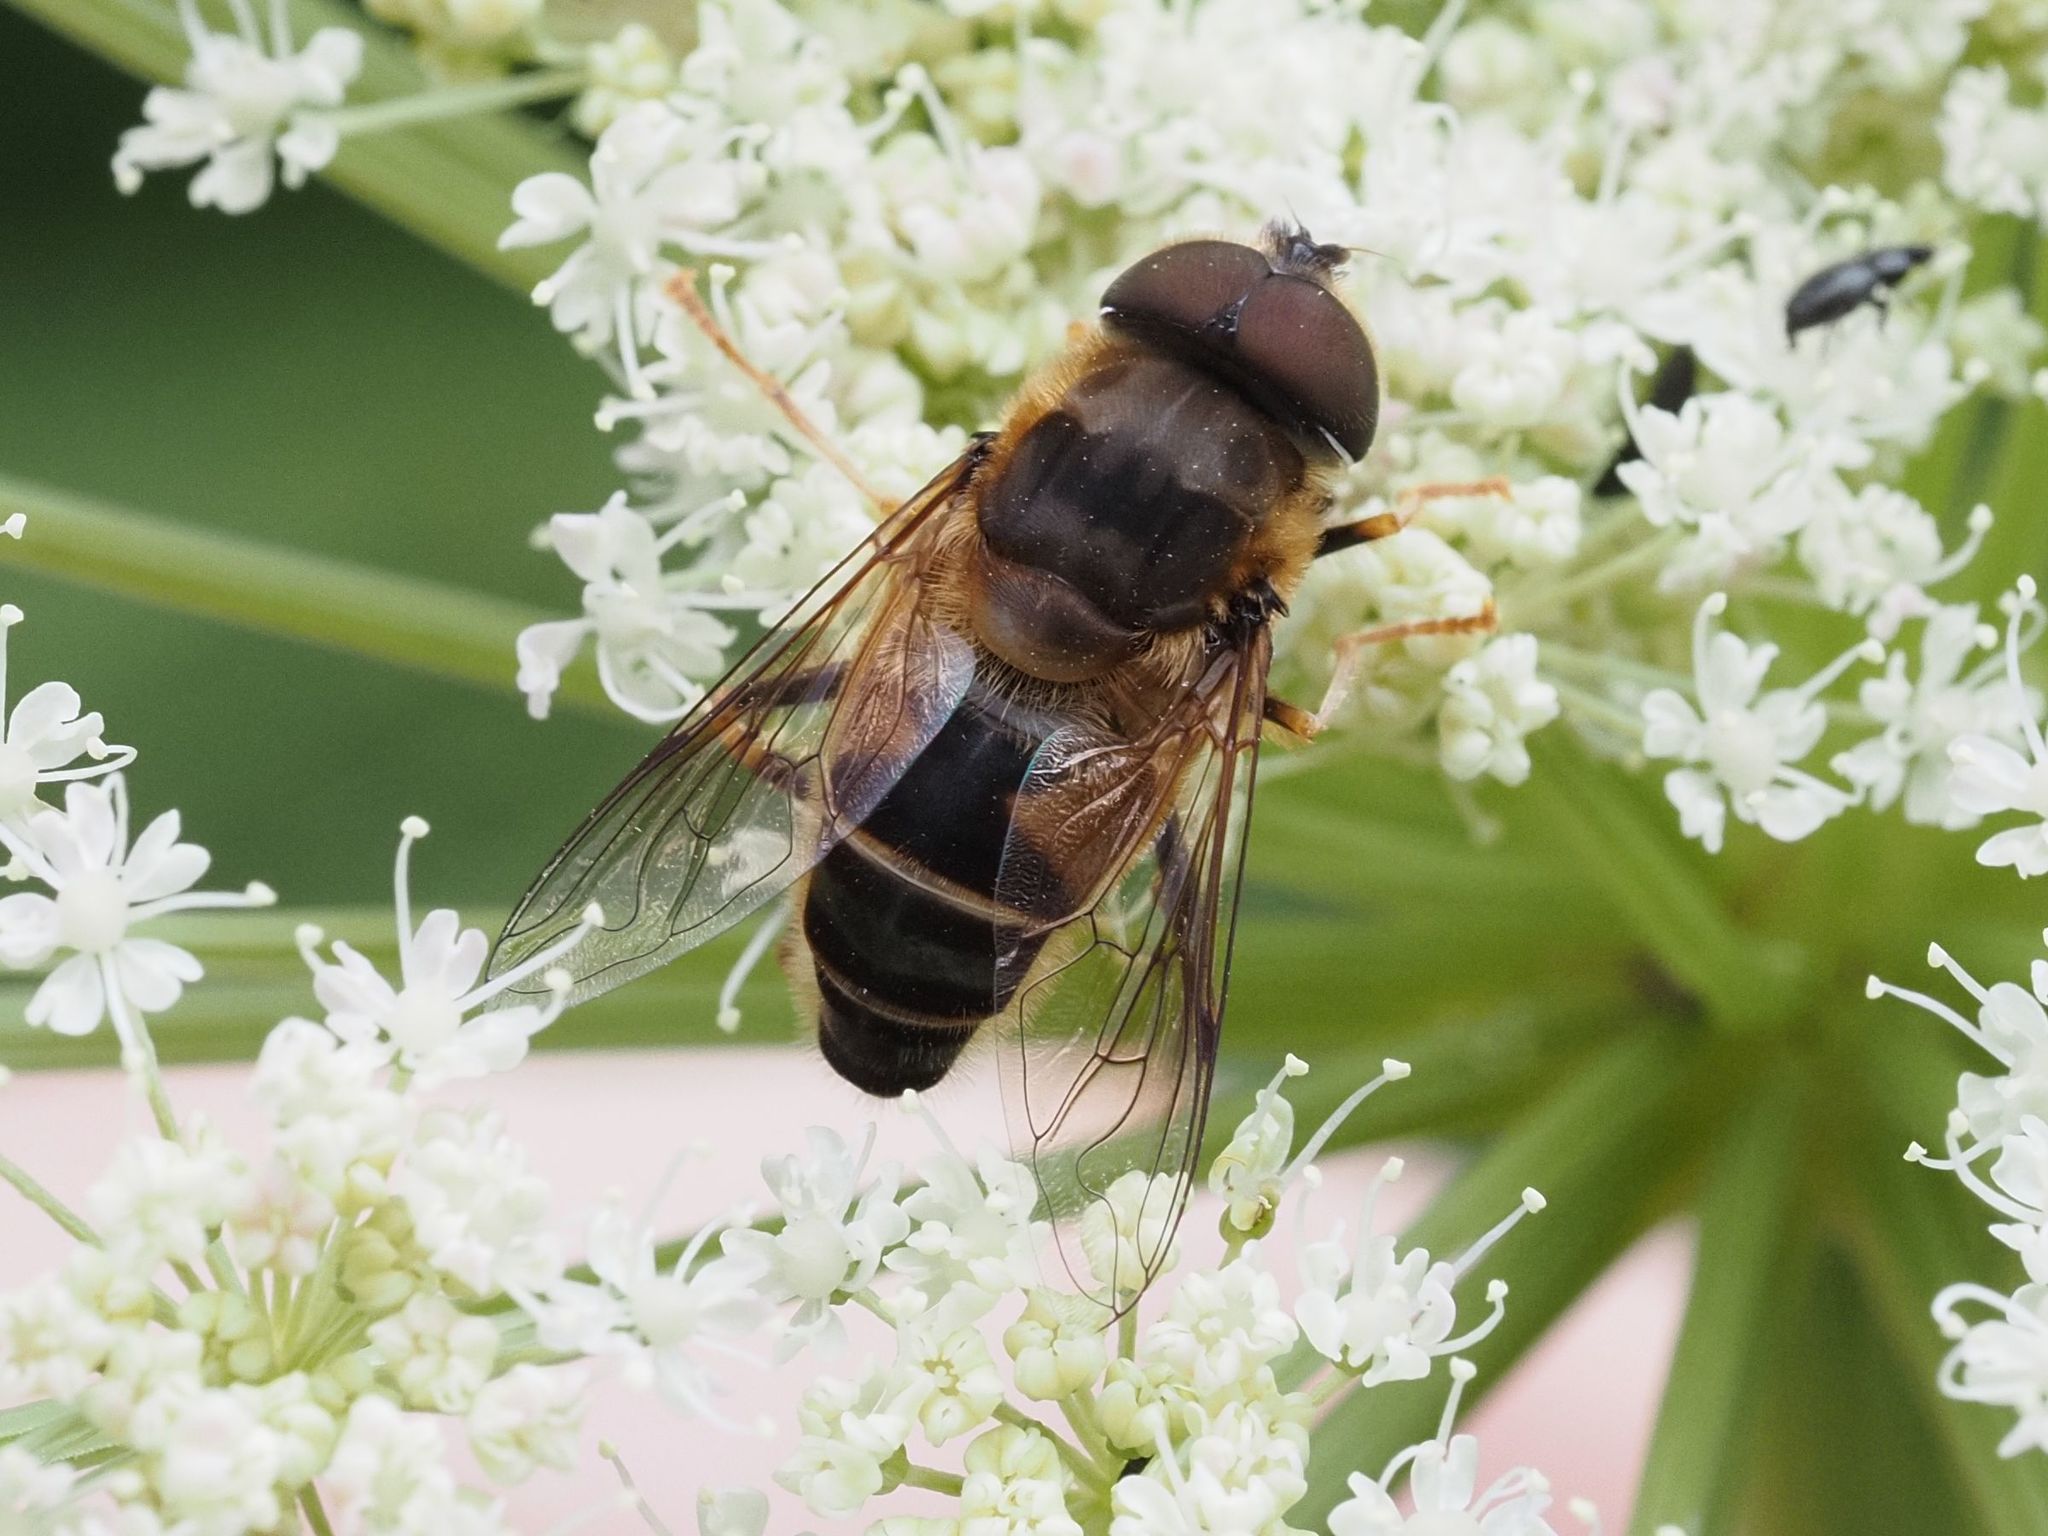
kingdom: Animalia
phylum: Arthropoda
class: Insecta
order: Diptera
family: Syrphidae
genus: Eristalis
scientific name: Eristalis pertinax
